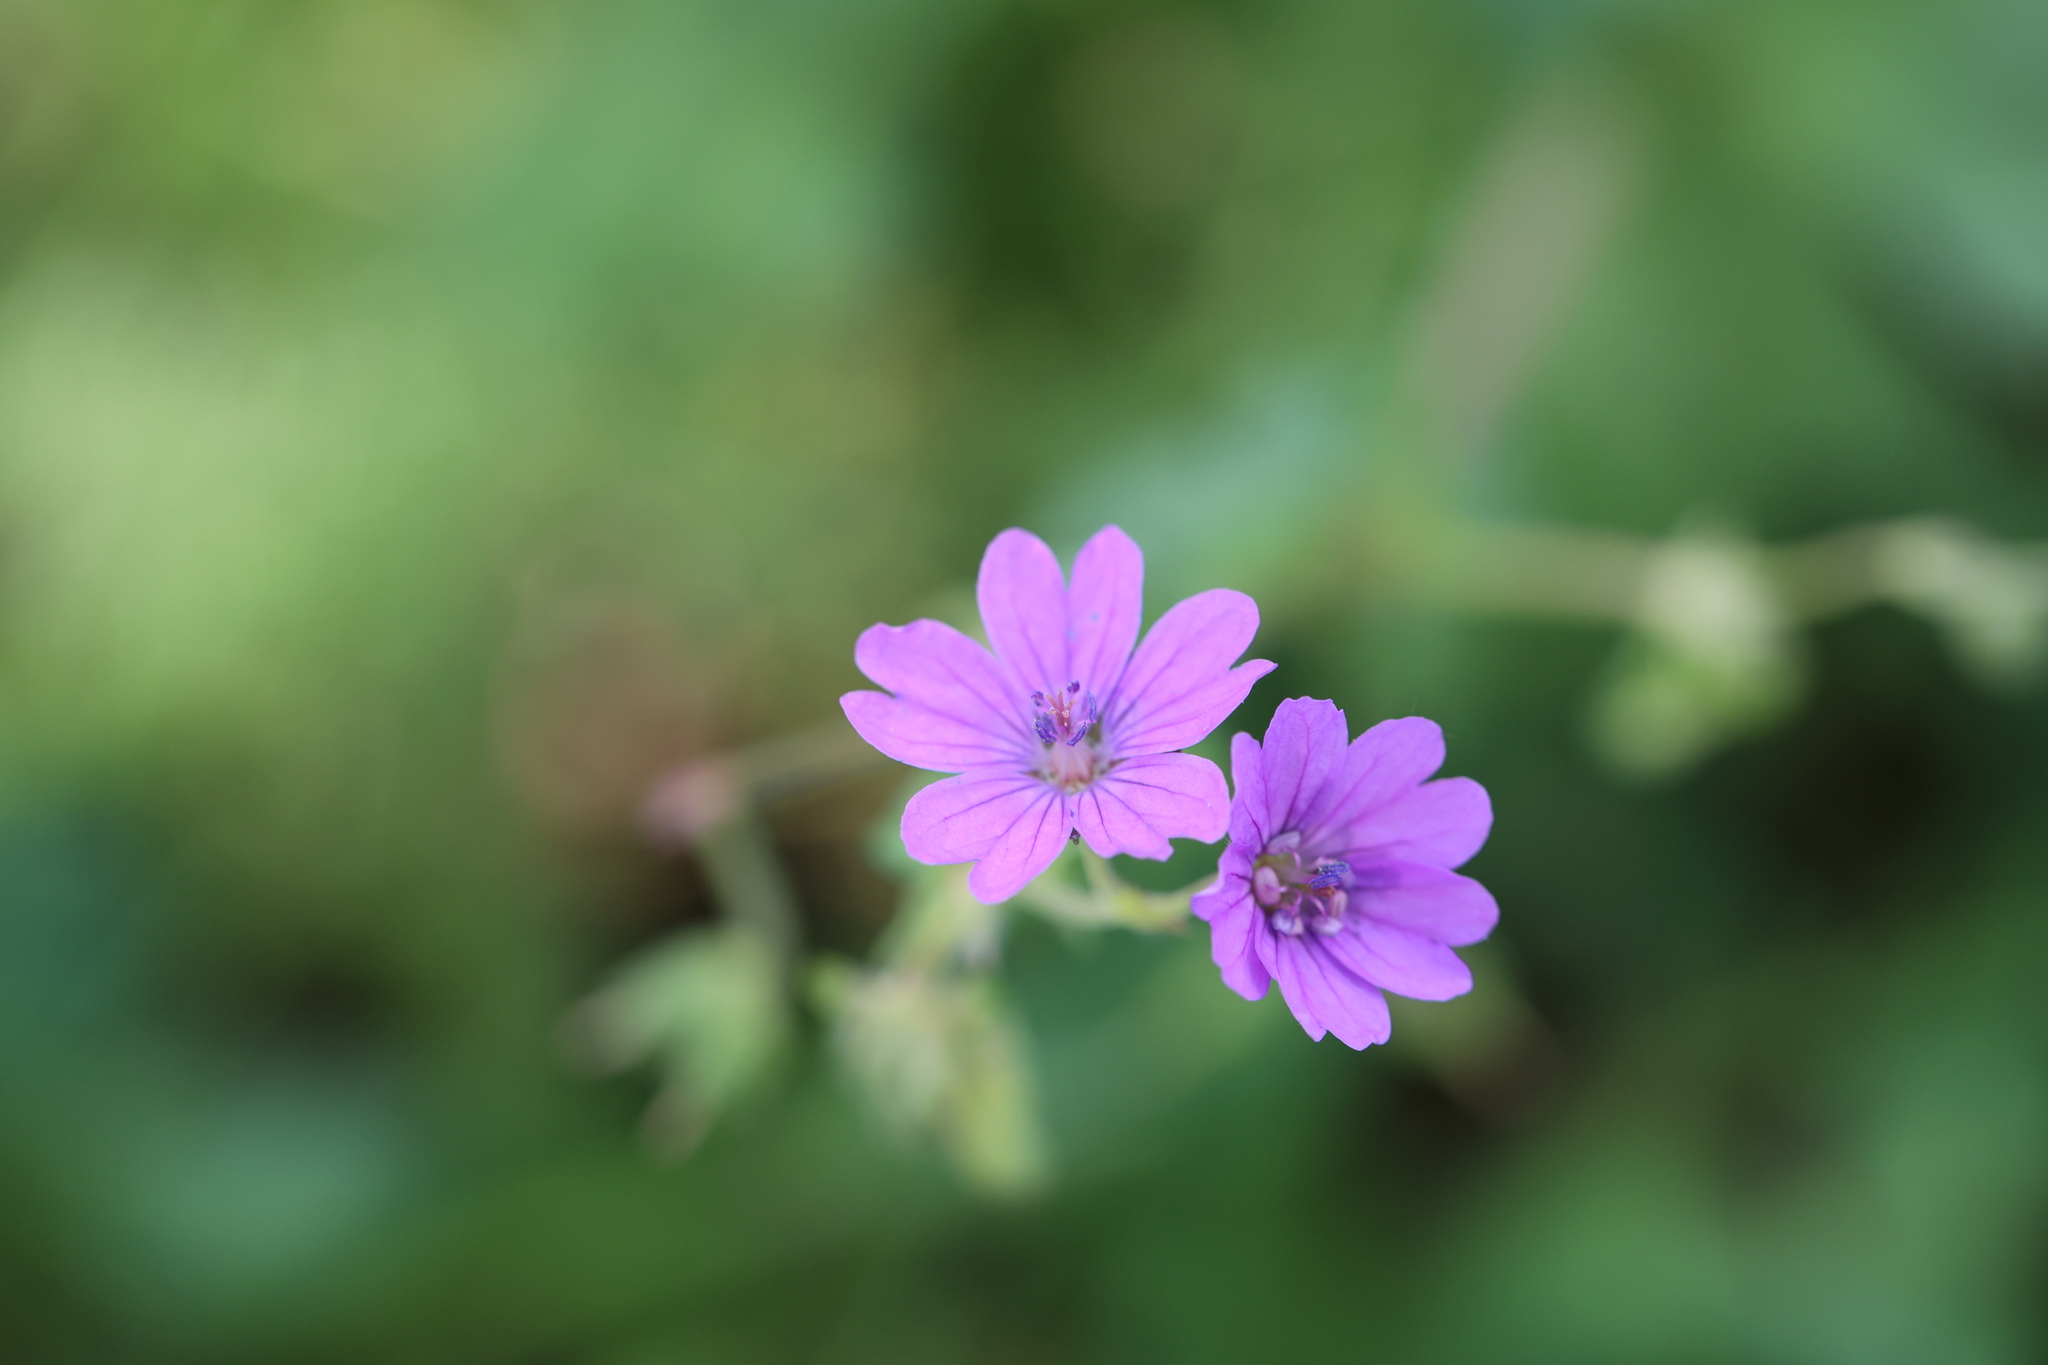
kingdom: Plantae
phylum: Tracheophyta
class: Magnoliopsida
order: Geraniales
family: Geraniaceae
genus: Geranium
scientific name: Geranium pyrenaicum
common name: Hedgerow crane's-bill
